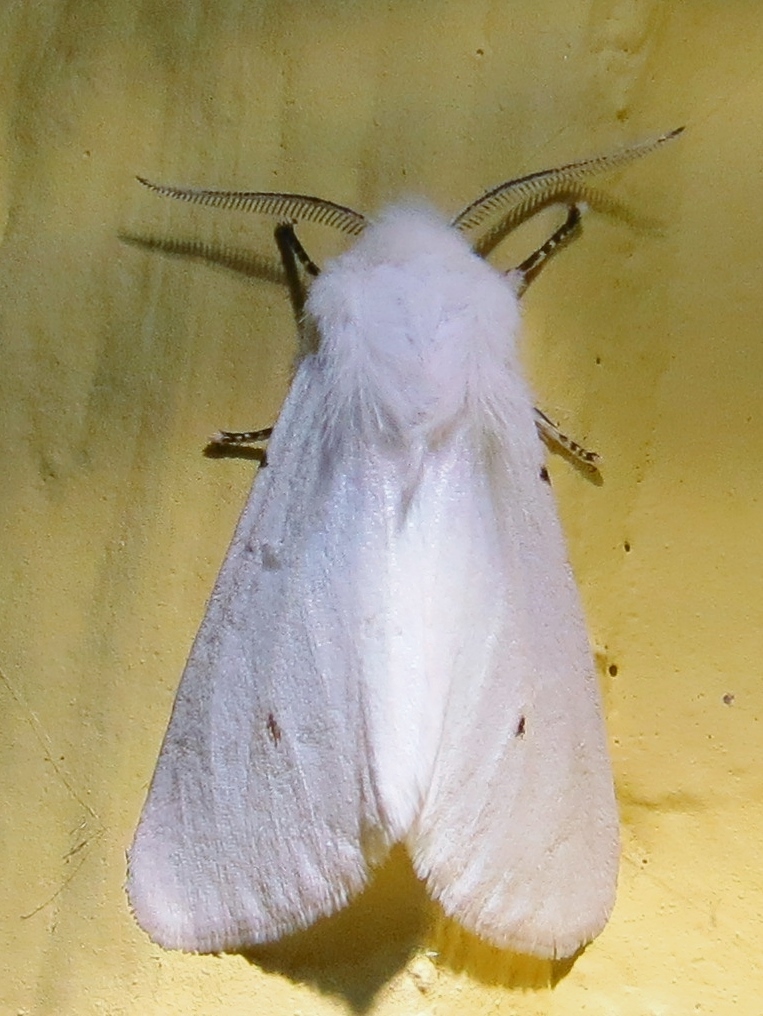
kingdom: Animalia
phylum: Arthropoda
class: Insecta
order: Lepidoptera
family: Erebidae
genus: Hyphantria
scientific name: Hyphantria cunea
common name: American white moth
